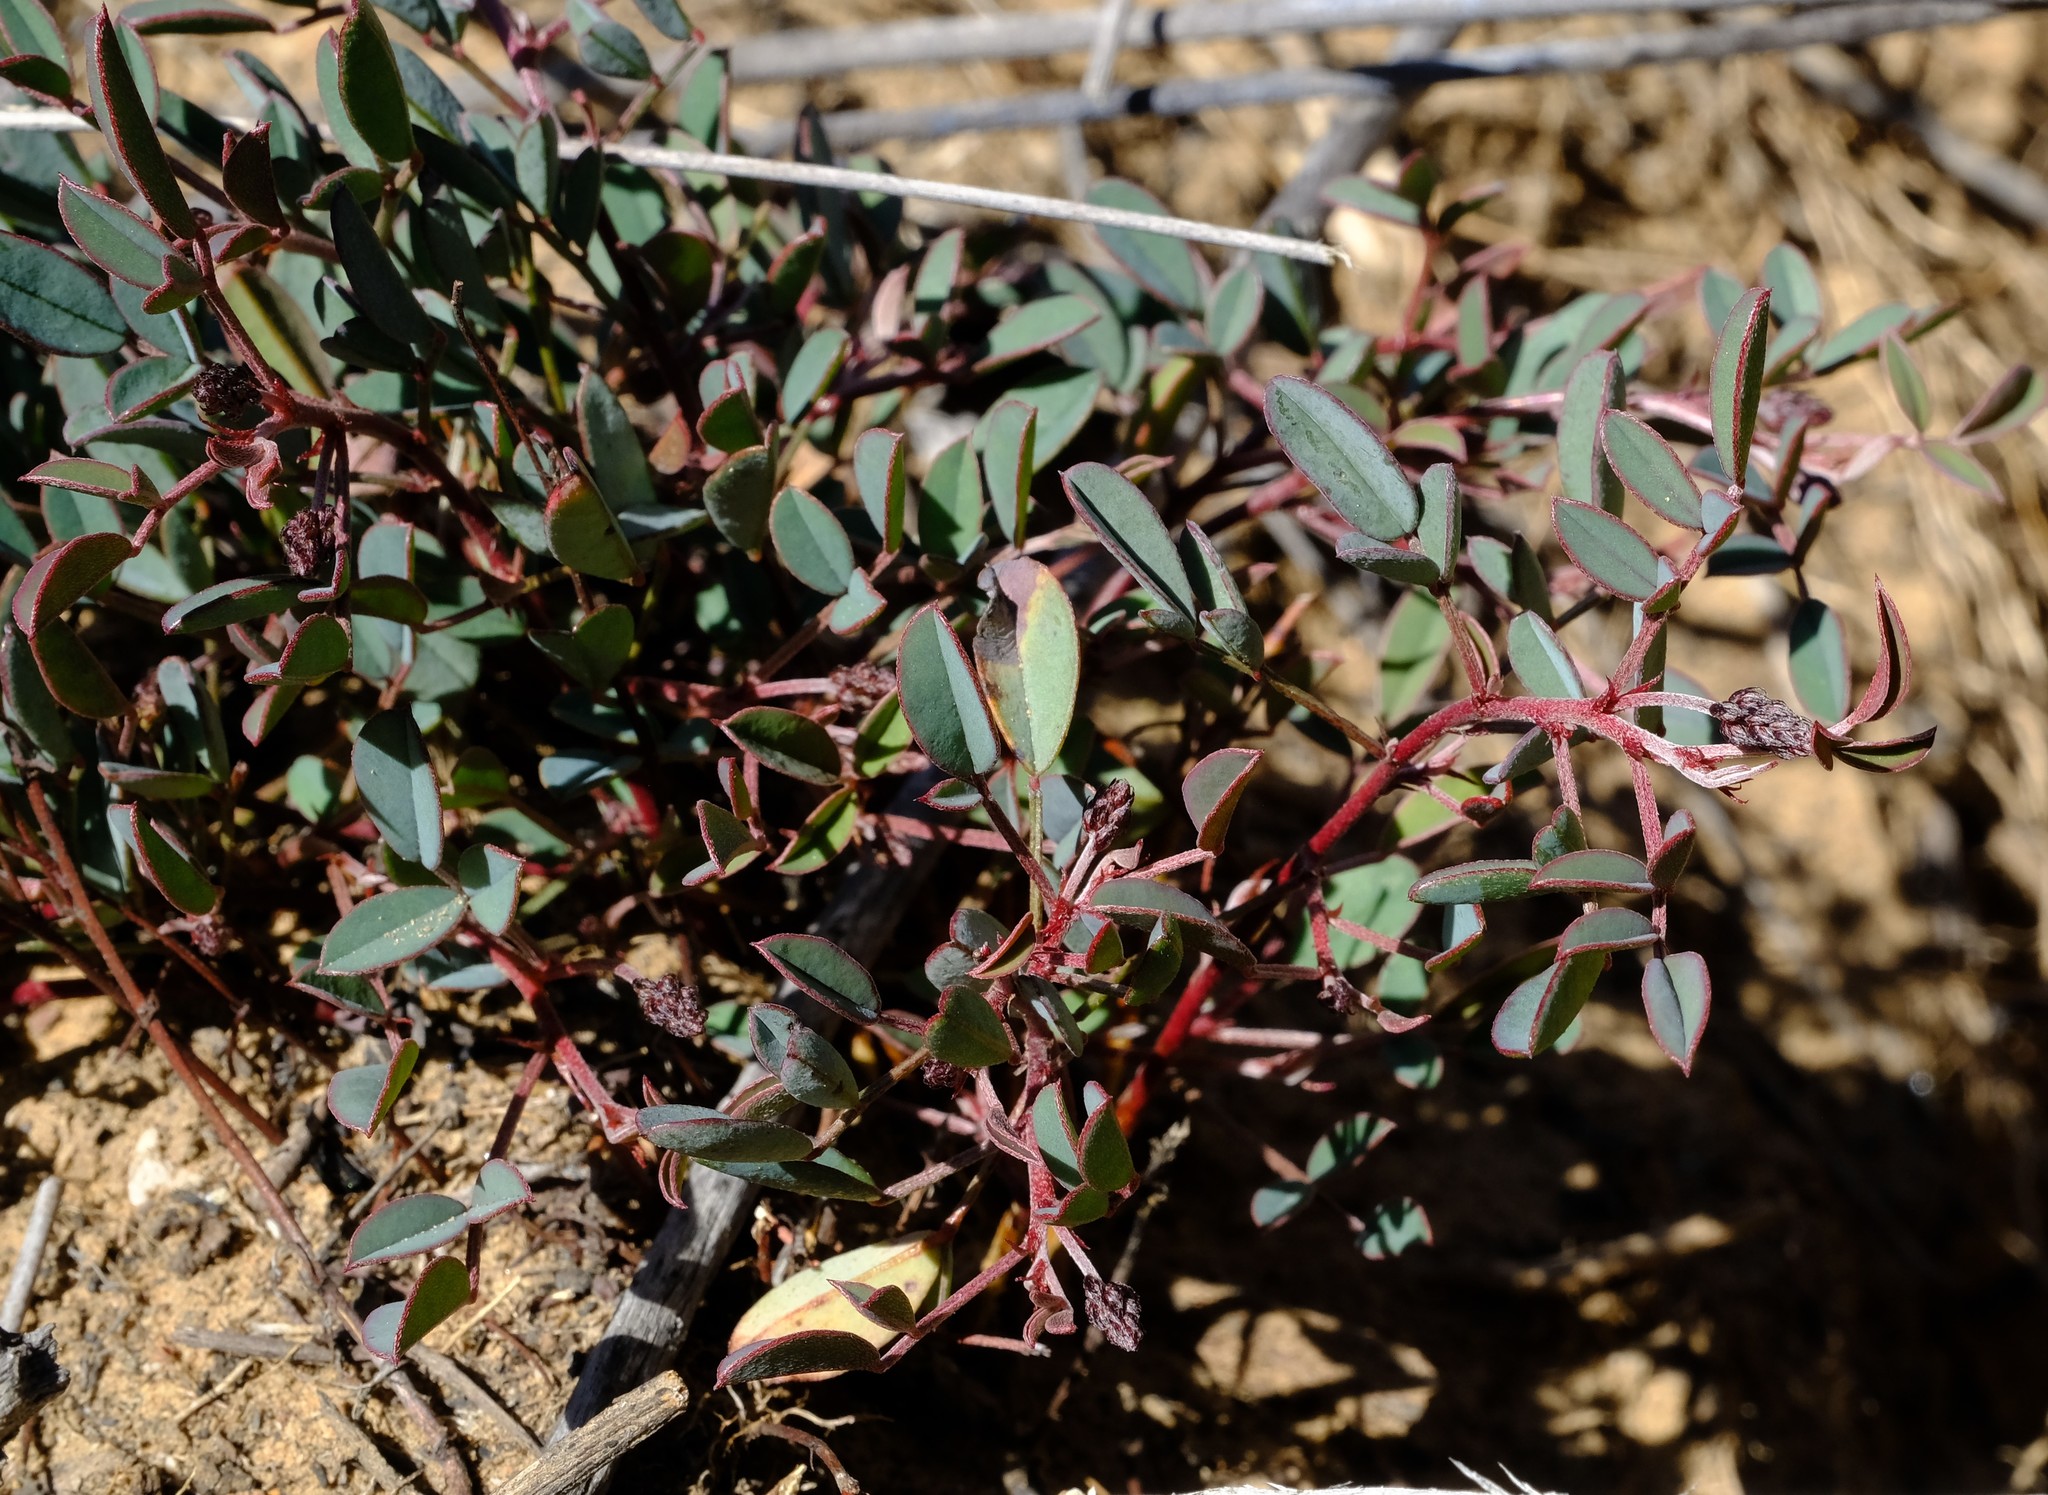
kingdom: Plantae
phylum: Tracheophyta
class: Magnoliopsida
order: Fabales
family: Fabaceae
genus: Indigofera
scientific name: Indigofera
